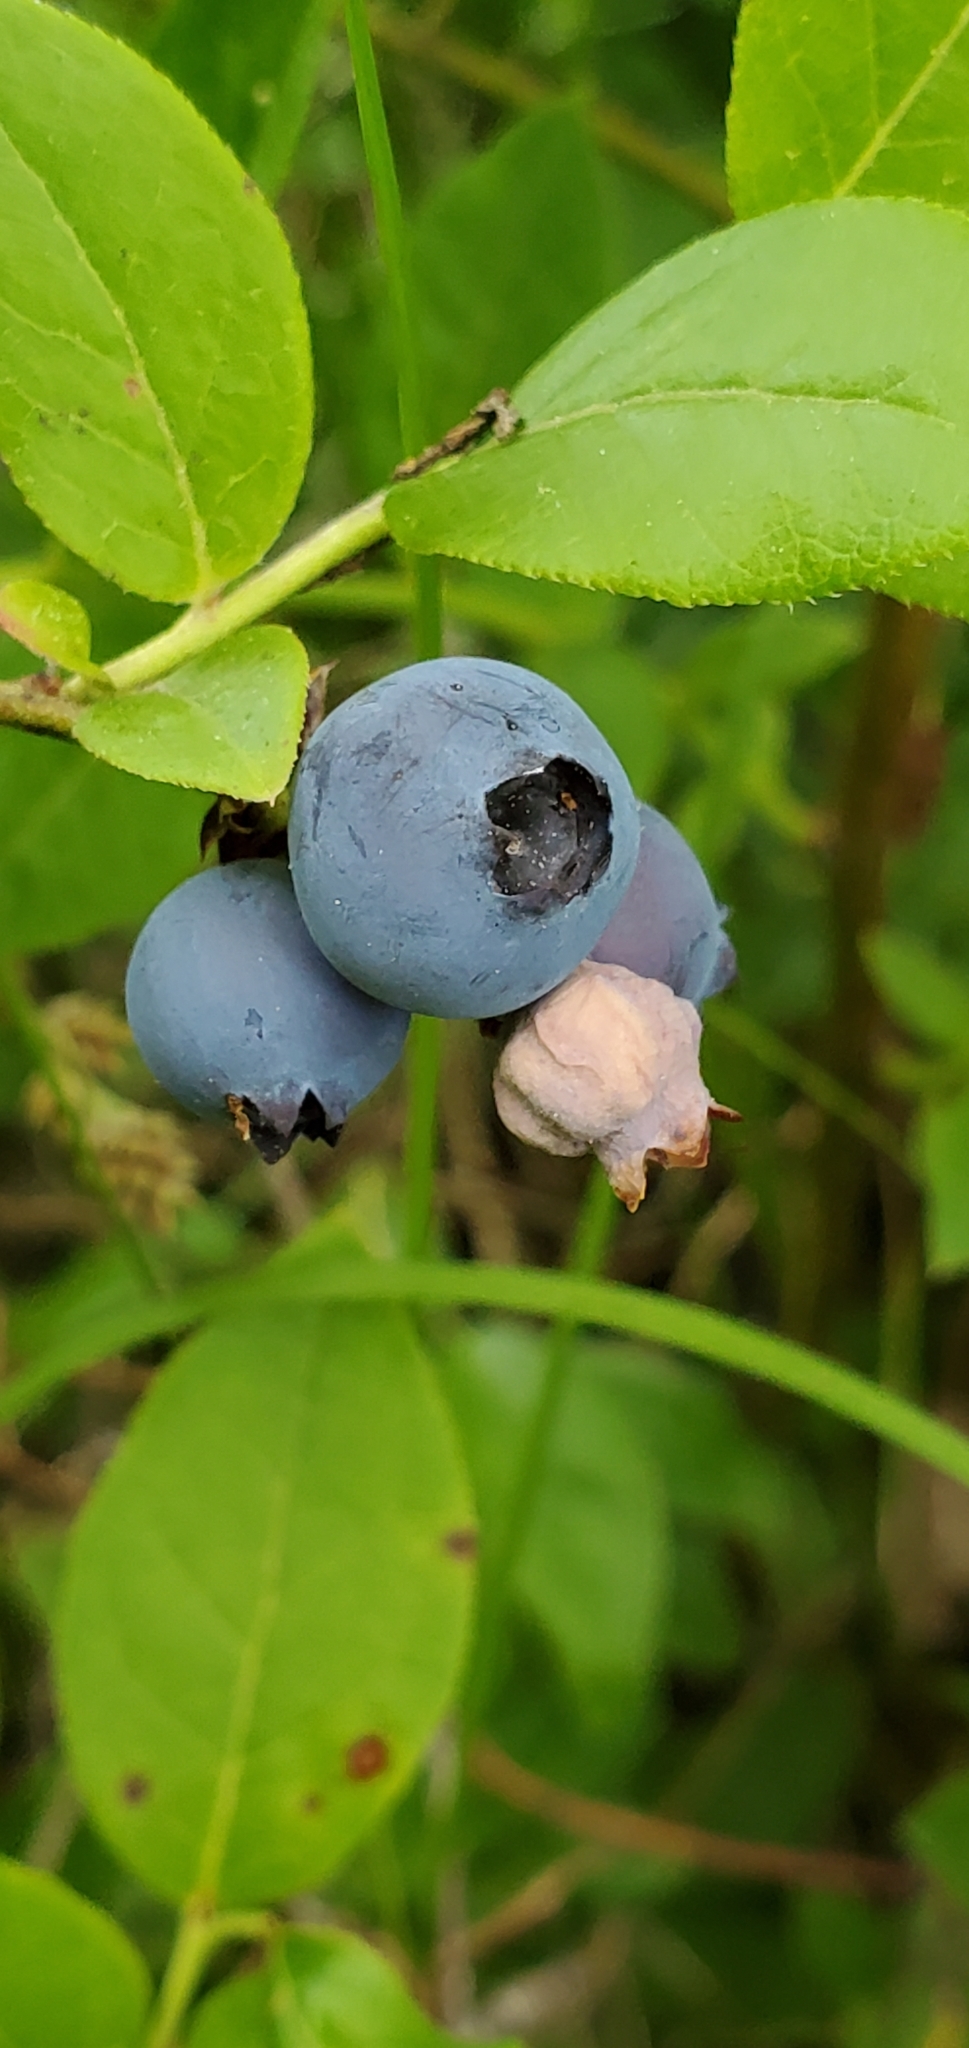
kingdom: Plantae
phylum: Tracheophyta
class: Magnoliopsida
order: Ericales
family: Ericaceae
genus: Vaccinium
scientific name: Vaccinium angustifolium
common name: Early lowbush blueberry
